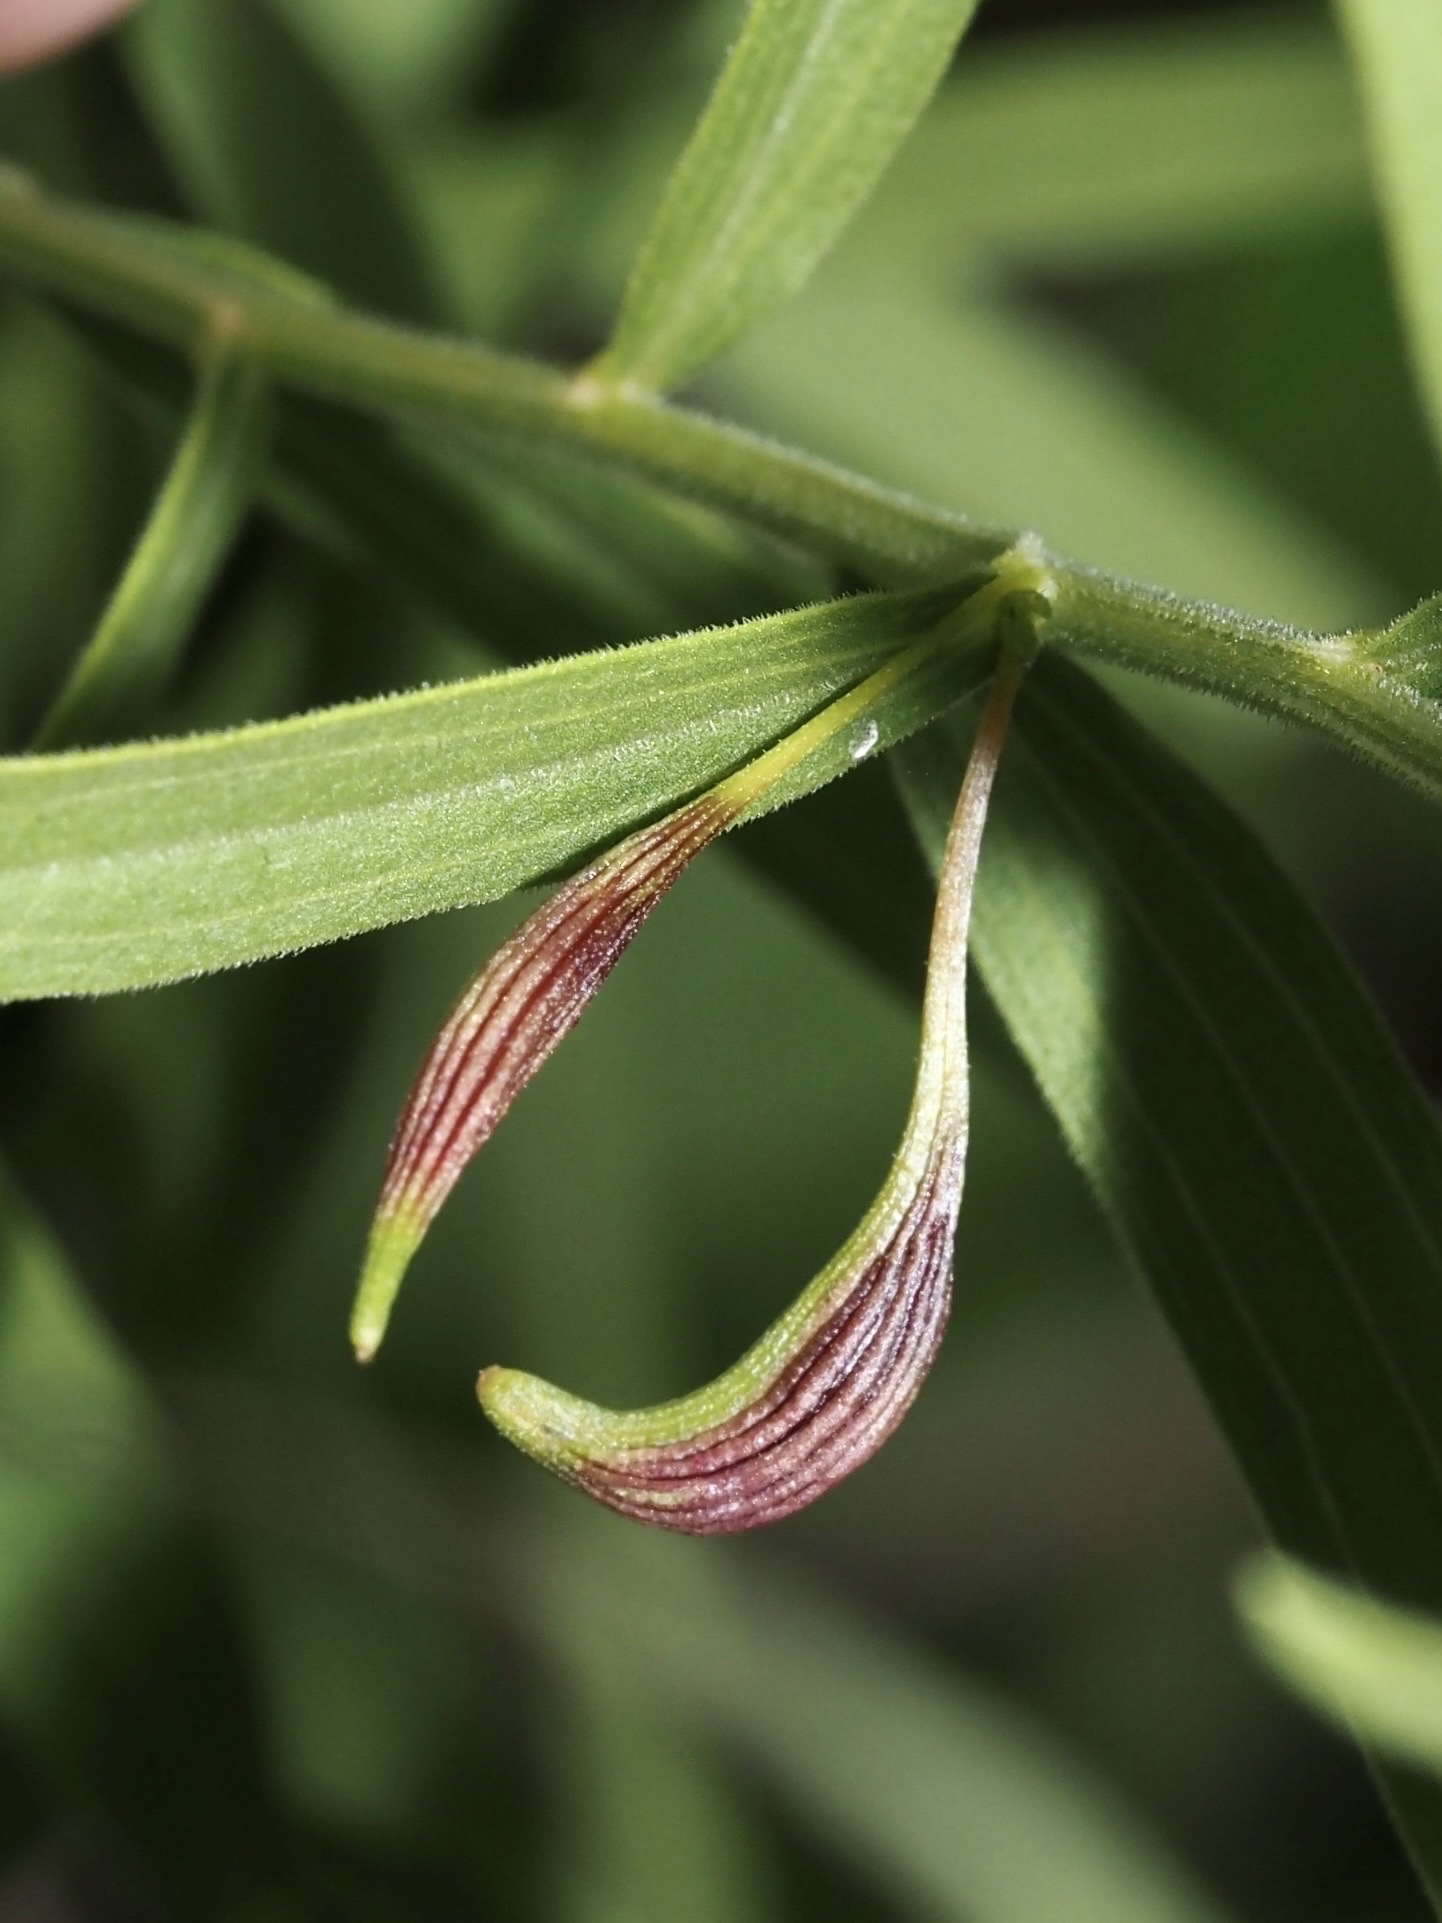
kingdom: Animalia
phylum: Arthropoda
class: Insecta
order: Diptera
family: Cecidomyiidae
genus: Rhopalomyia
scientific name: Rhopalomyia pedicellata
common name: Goldentop pedicellate gall midge
